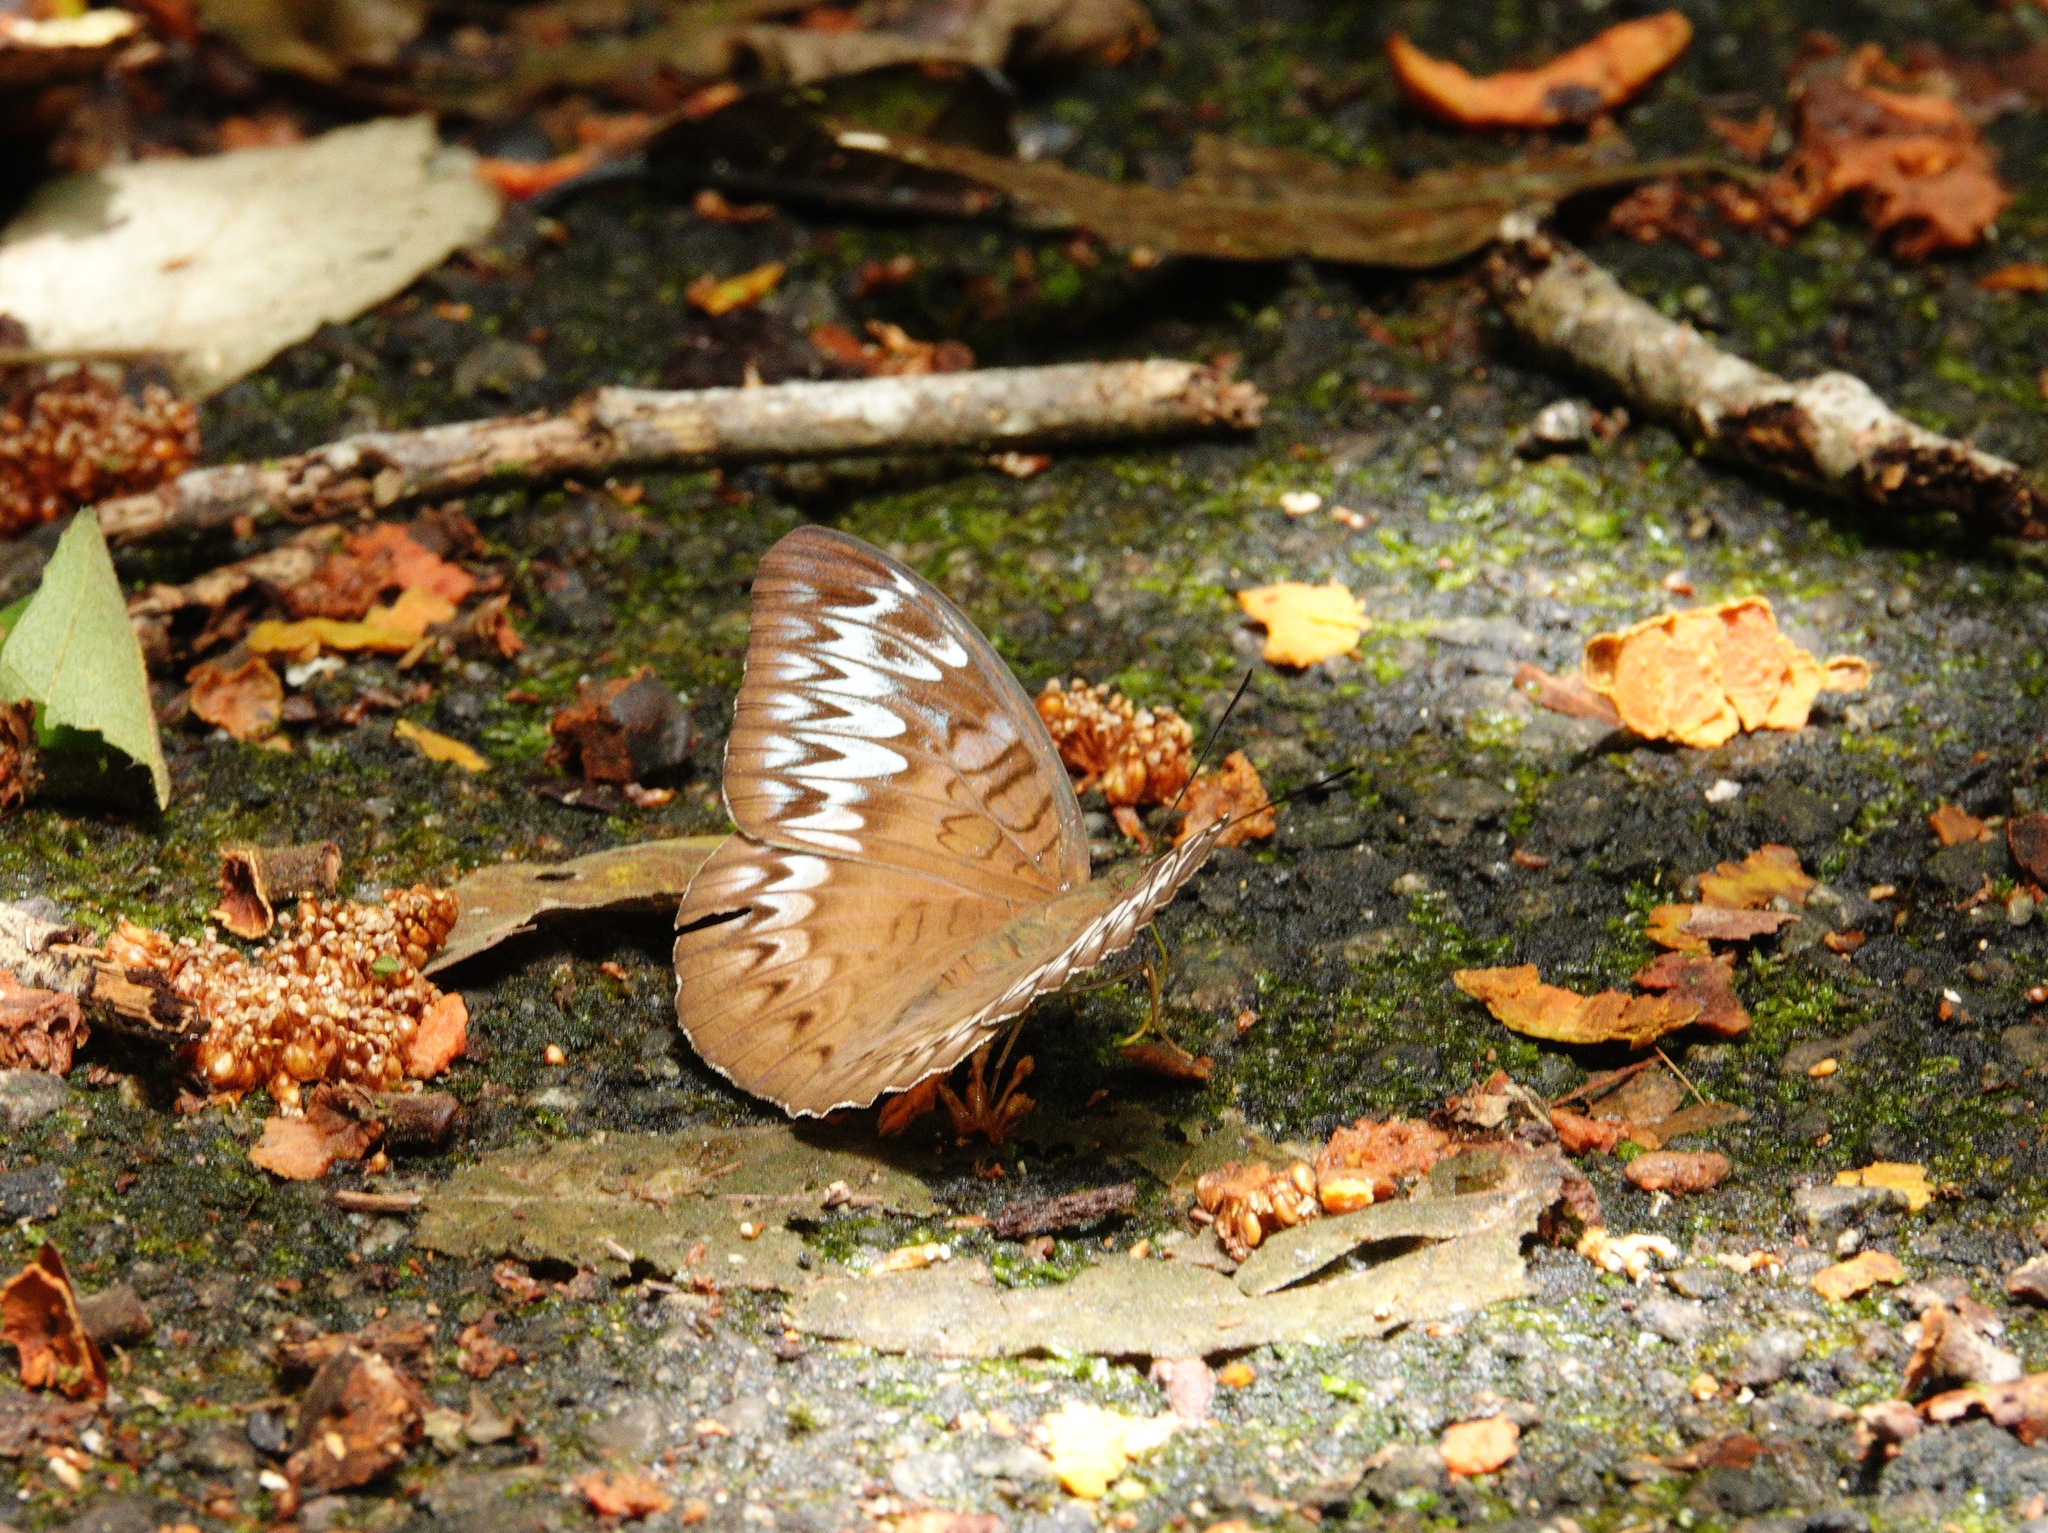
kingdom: Animalia
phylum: Arthropoda
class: Insecta
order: Lepidoptera
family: Nymphalidae
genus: Tanaecia
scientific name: Tanaecia pelea
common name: Malay viscount
